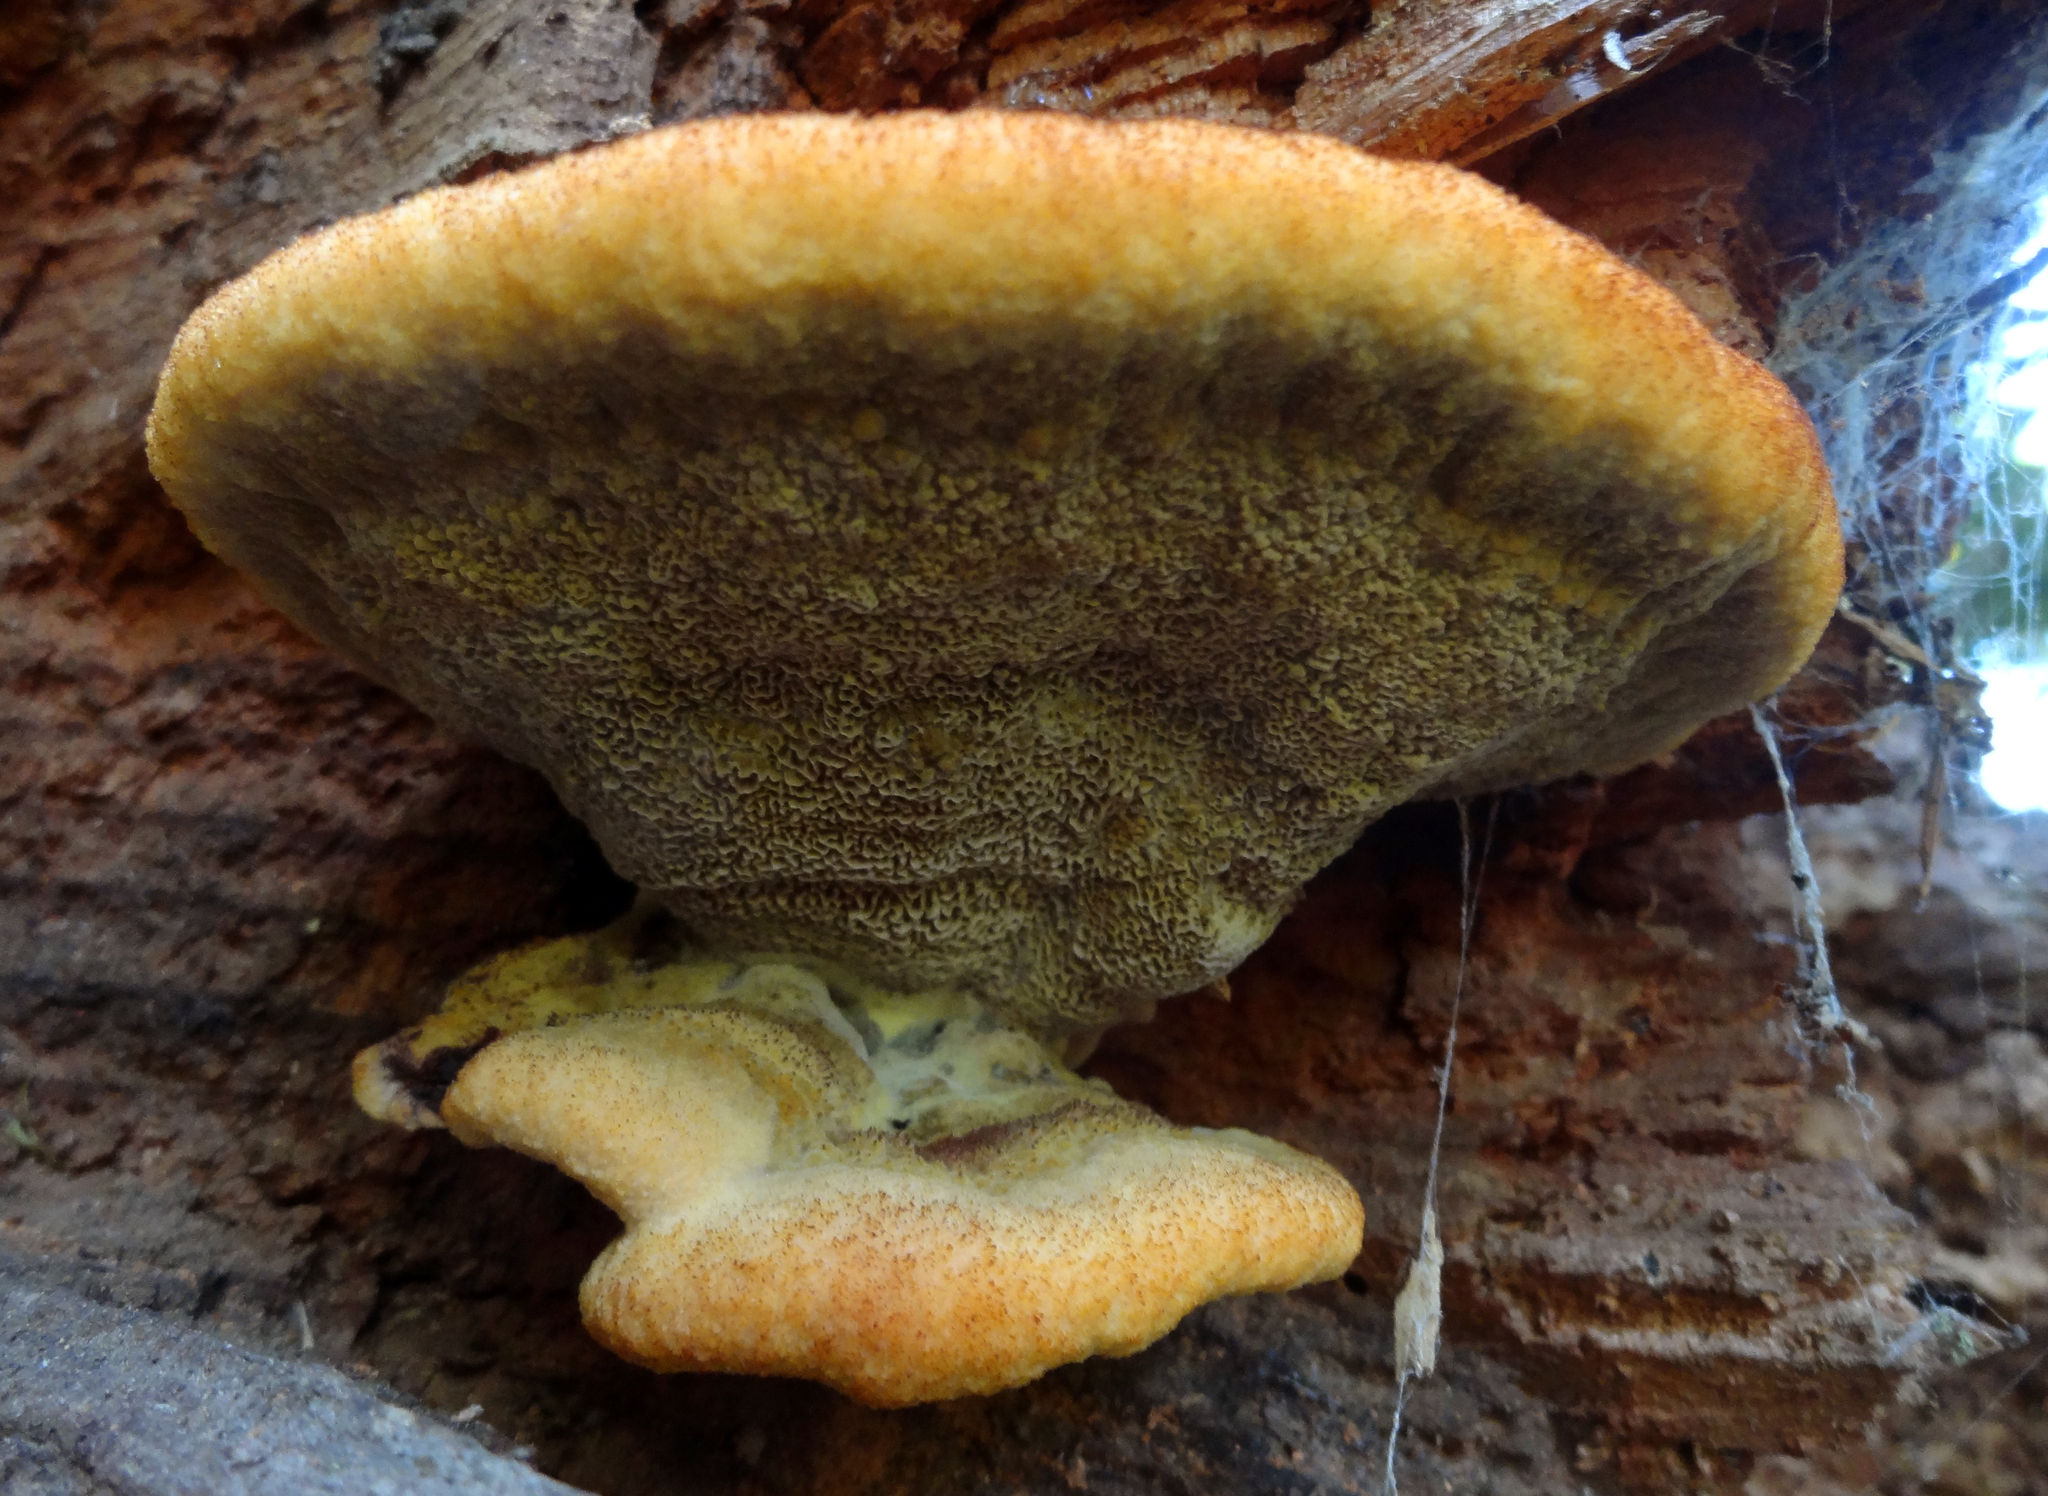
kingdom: Fungi
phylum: Basidiomycota
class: Agaricomycetes
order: Polyporales
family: Laetiporaceae
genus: Phaeolus
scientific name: Phaeolus schweinitzii
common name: Dyer's mazegill
